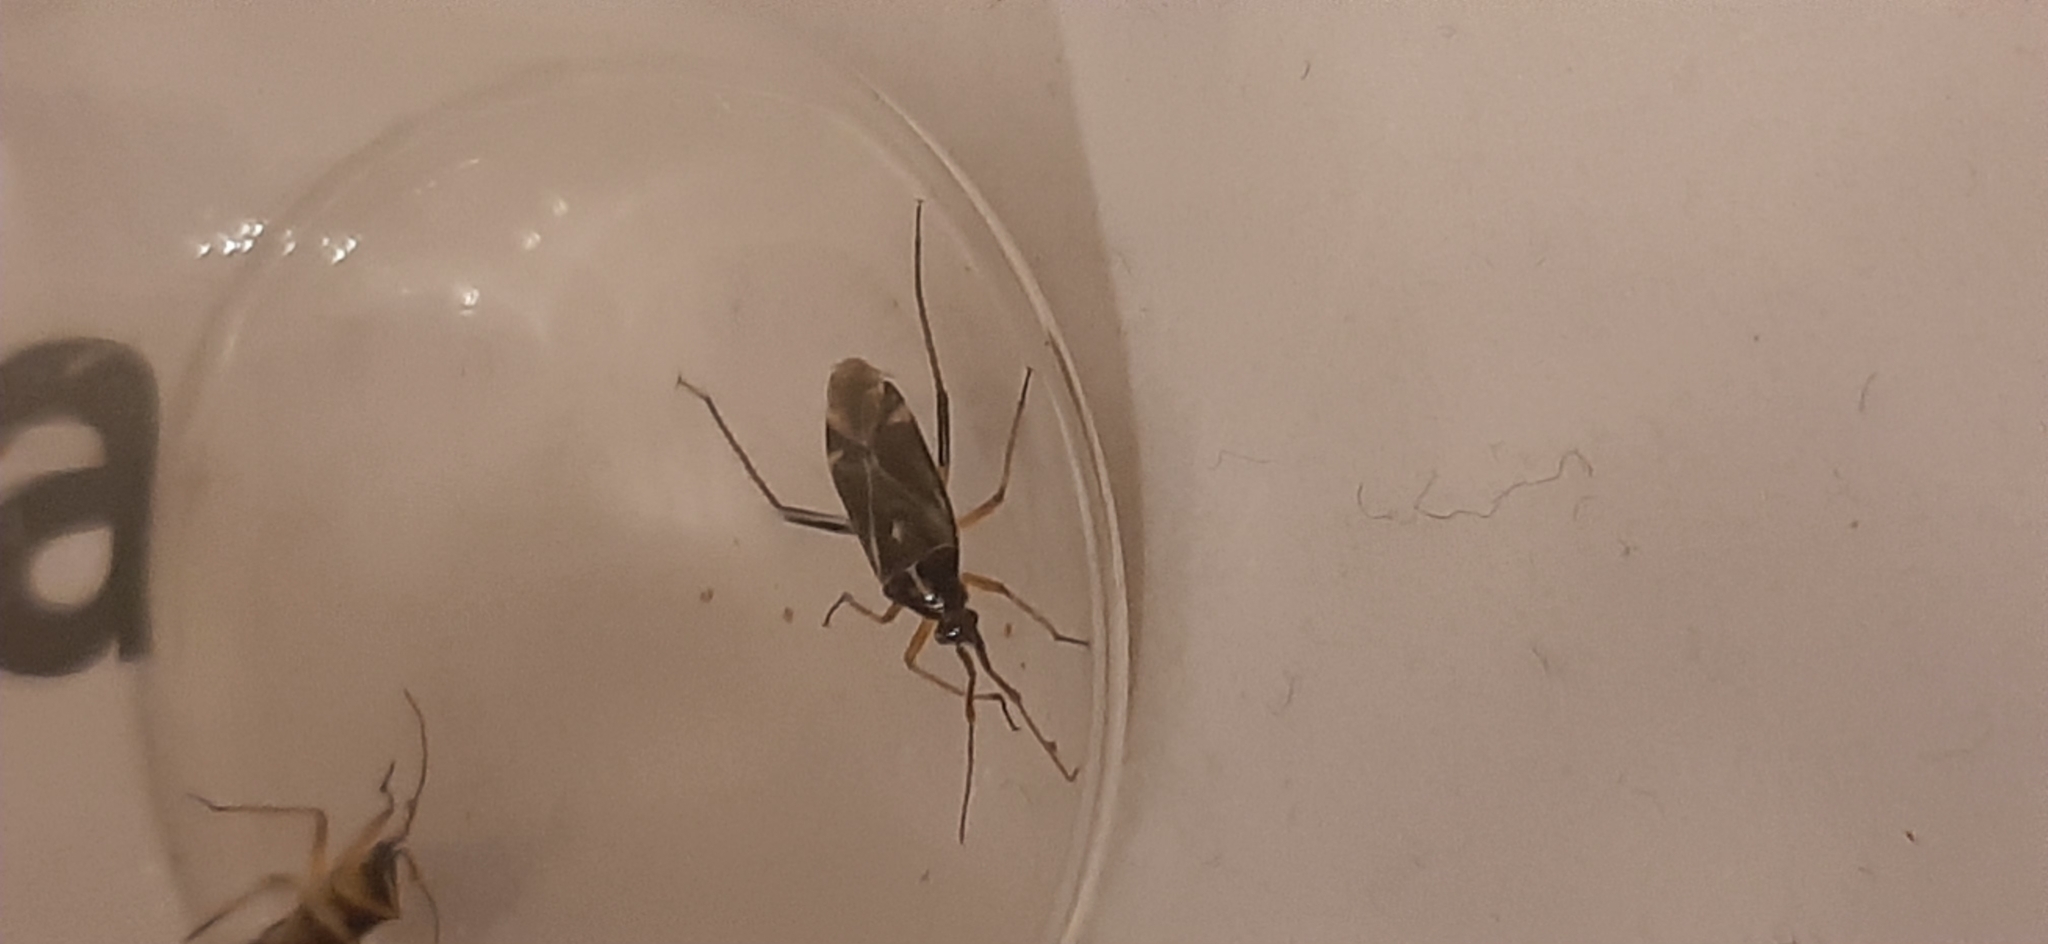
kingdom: Animalia
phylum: Arthropoda
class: Insecta
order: Hemiptera
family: Miridae
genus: Harpocera
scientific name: Harpocera thoracica
